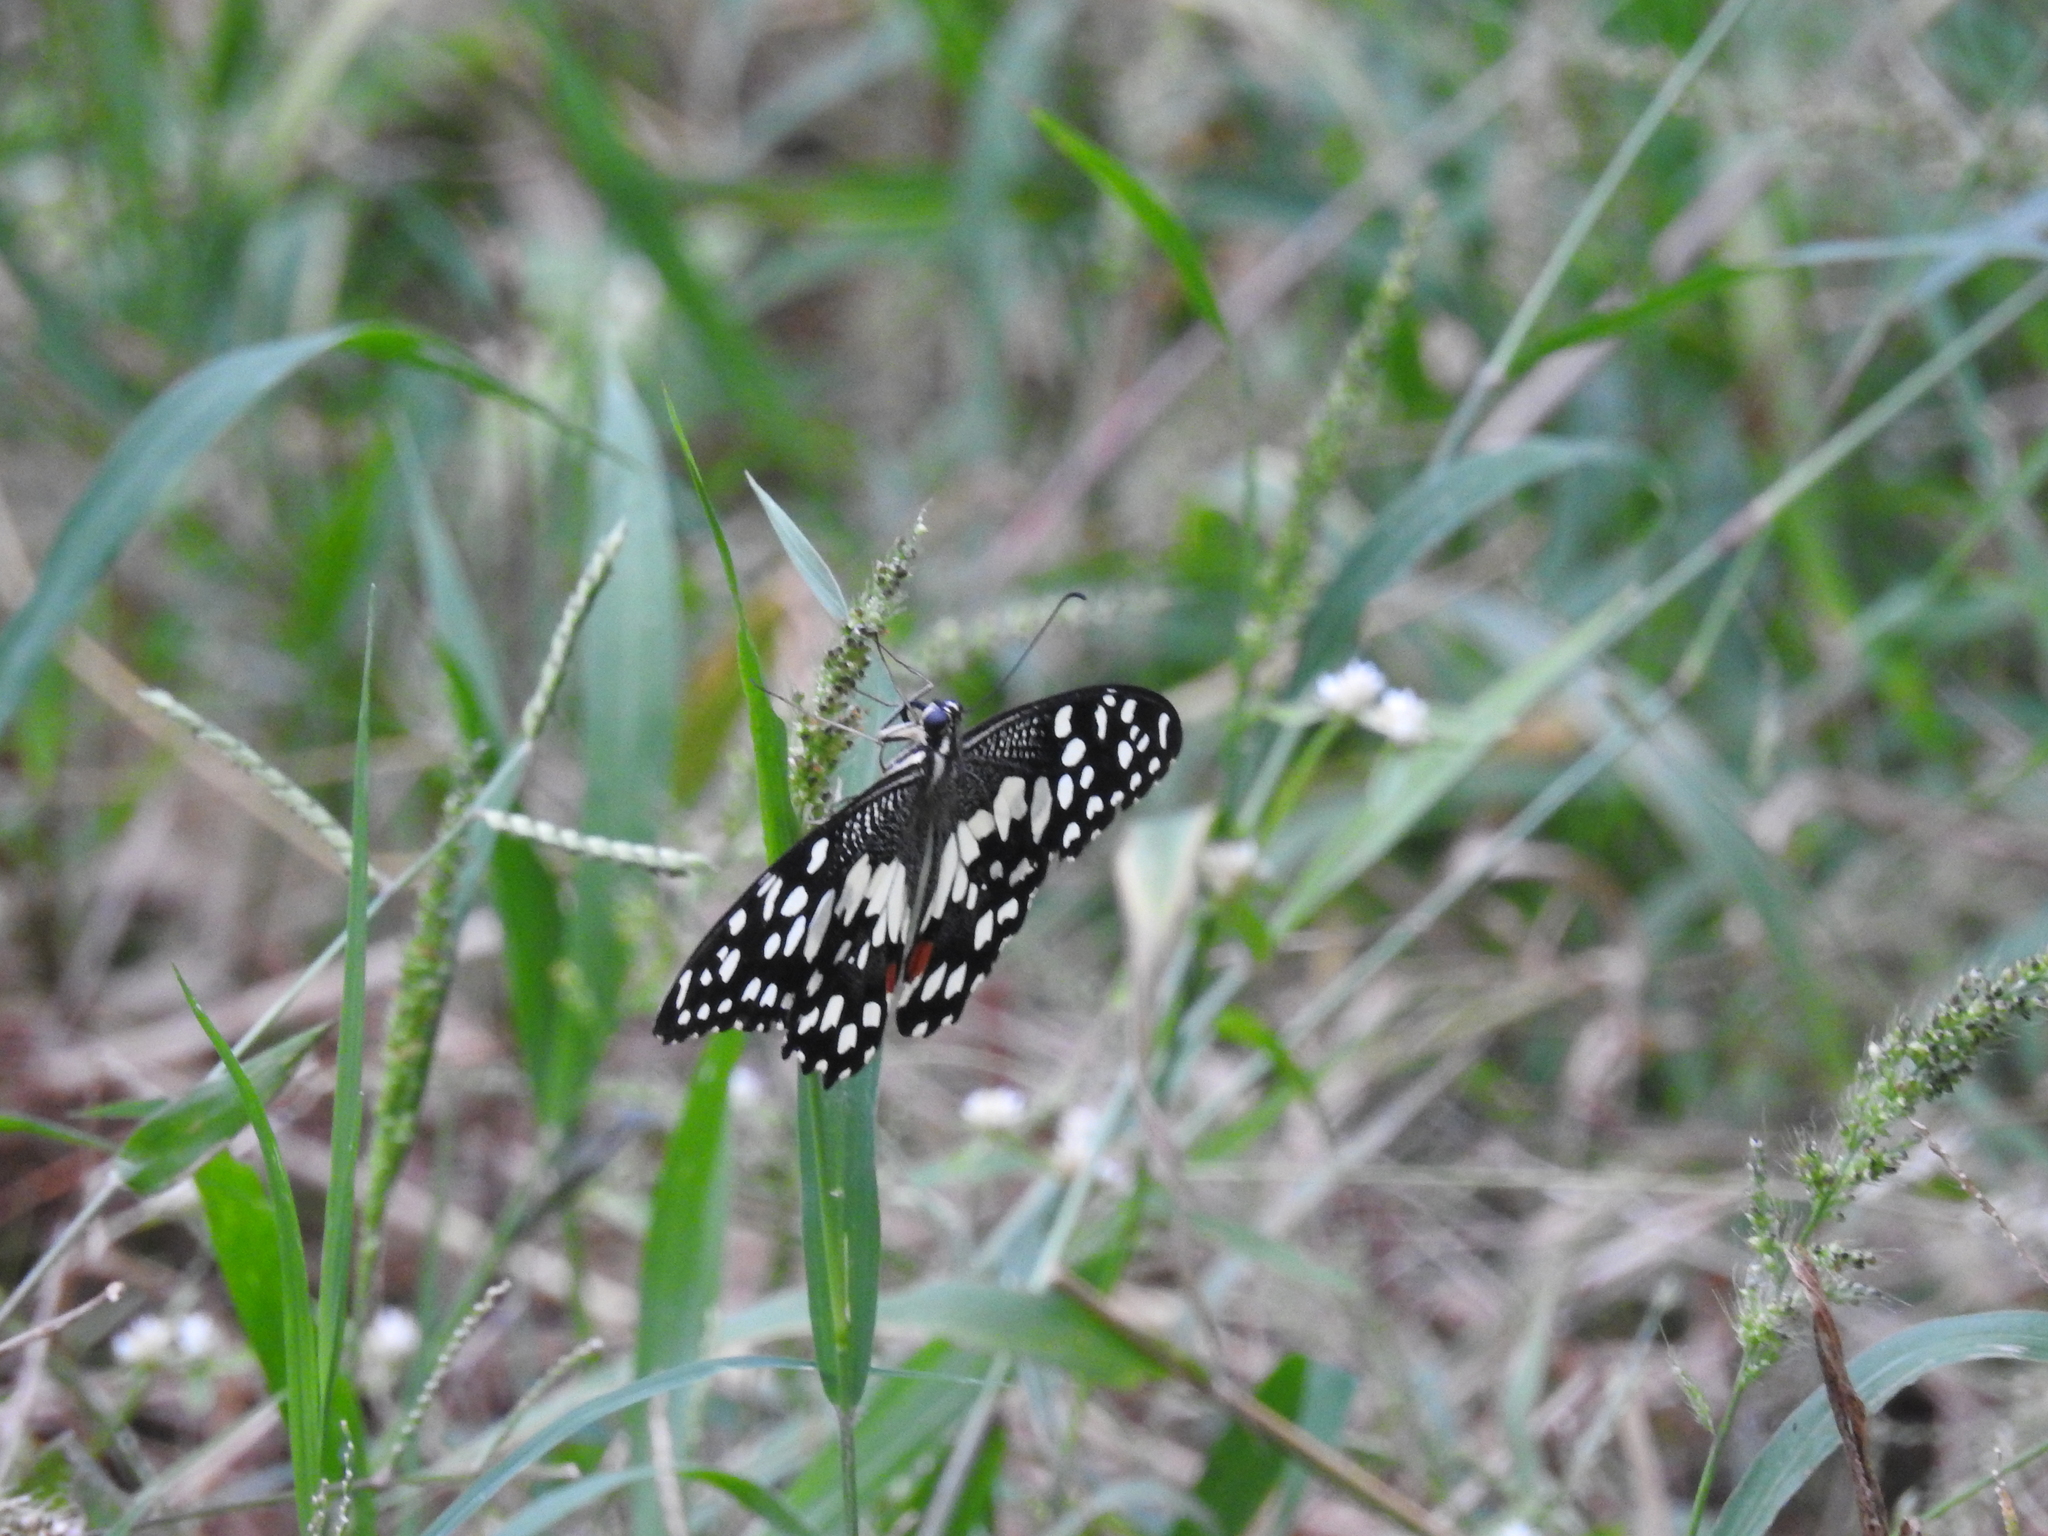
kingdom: Animalia
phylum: Arthropoda
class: Insecta
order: Lepidoptera
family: Papilionidae
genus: Papilio
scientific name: Papilio demoleus
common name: Lime butterfly
